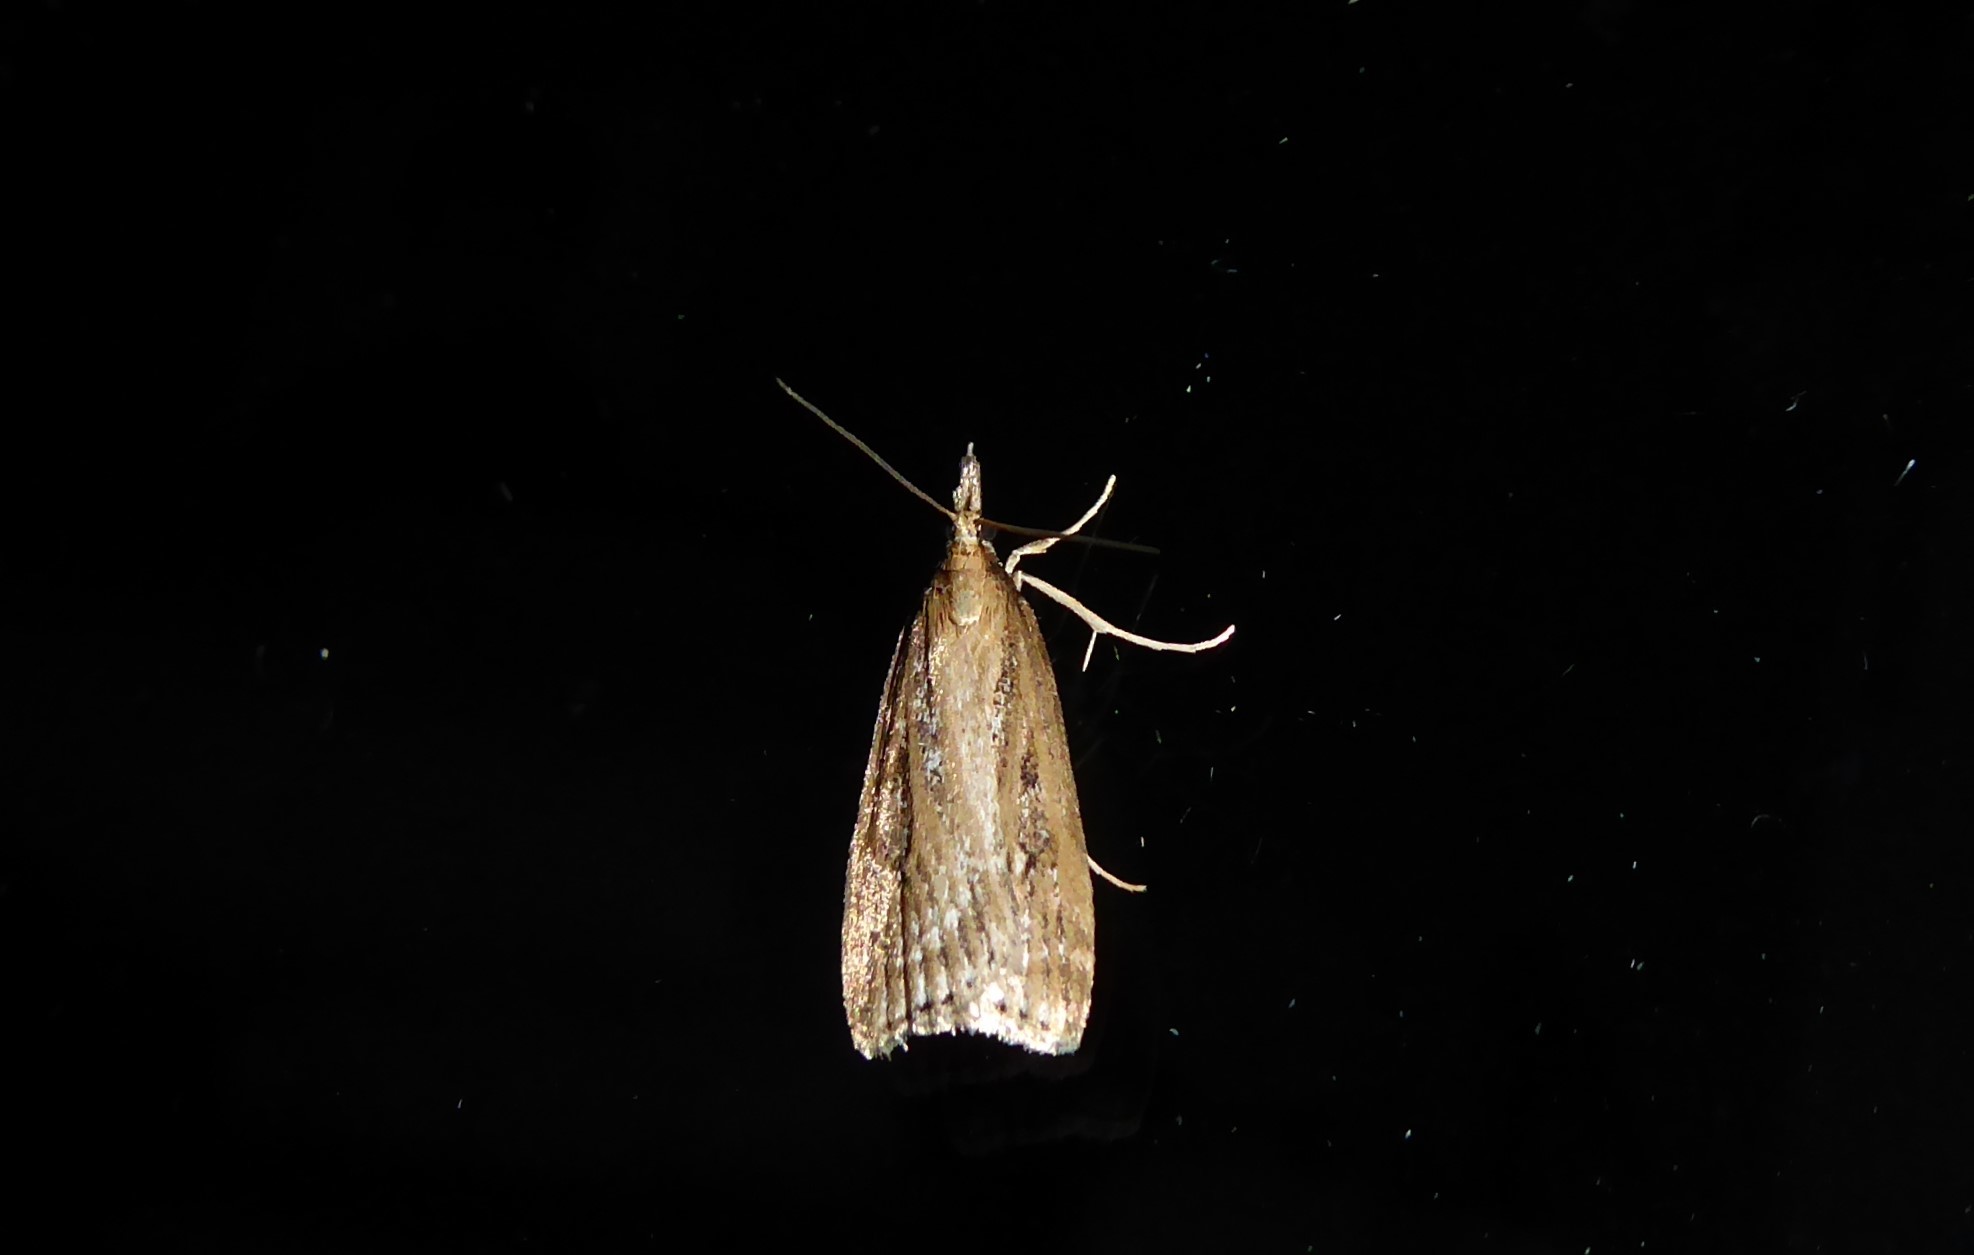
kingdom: Animalia
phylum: Arthropoda
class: Insecta
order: Lepidoptera
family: Crambidae
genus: Eudonia
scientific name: Eudonia octophora
